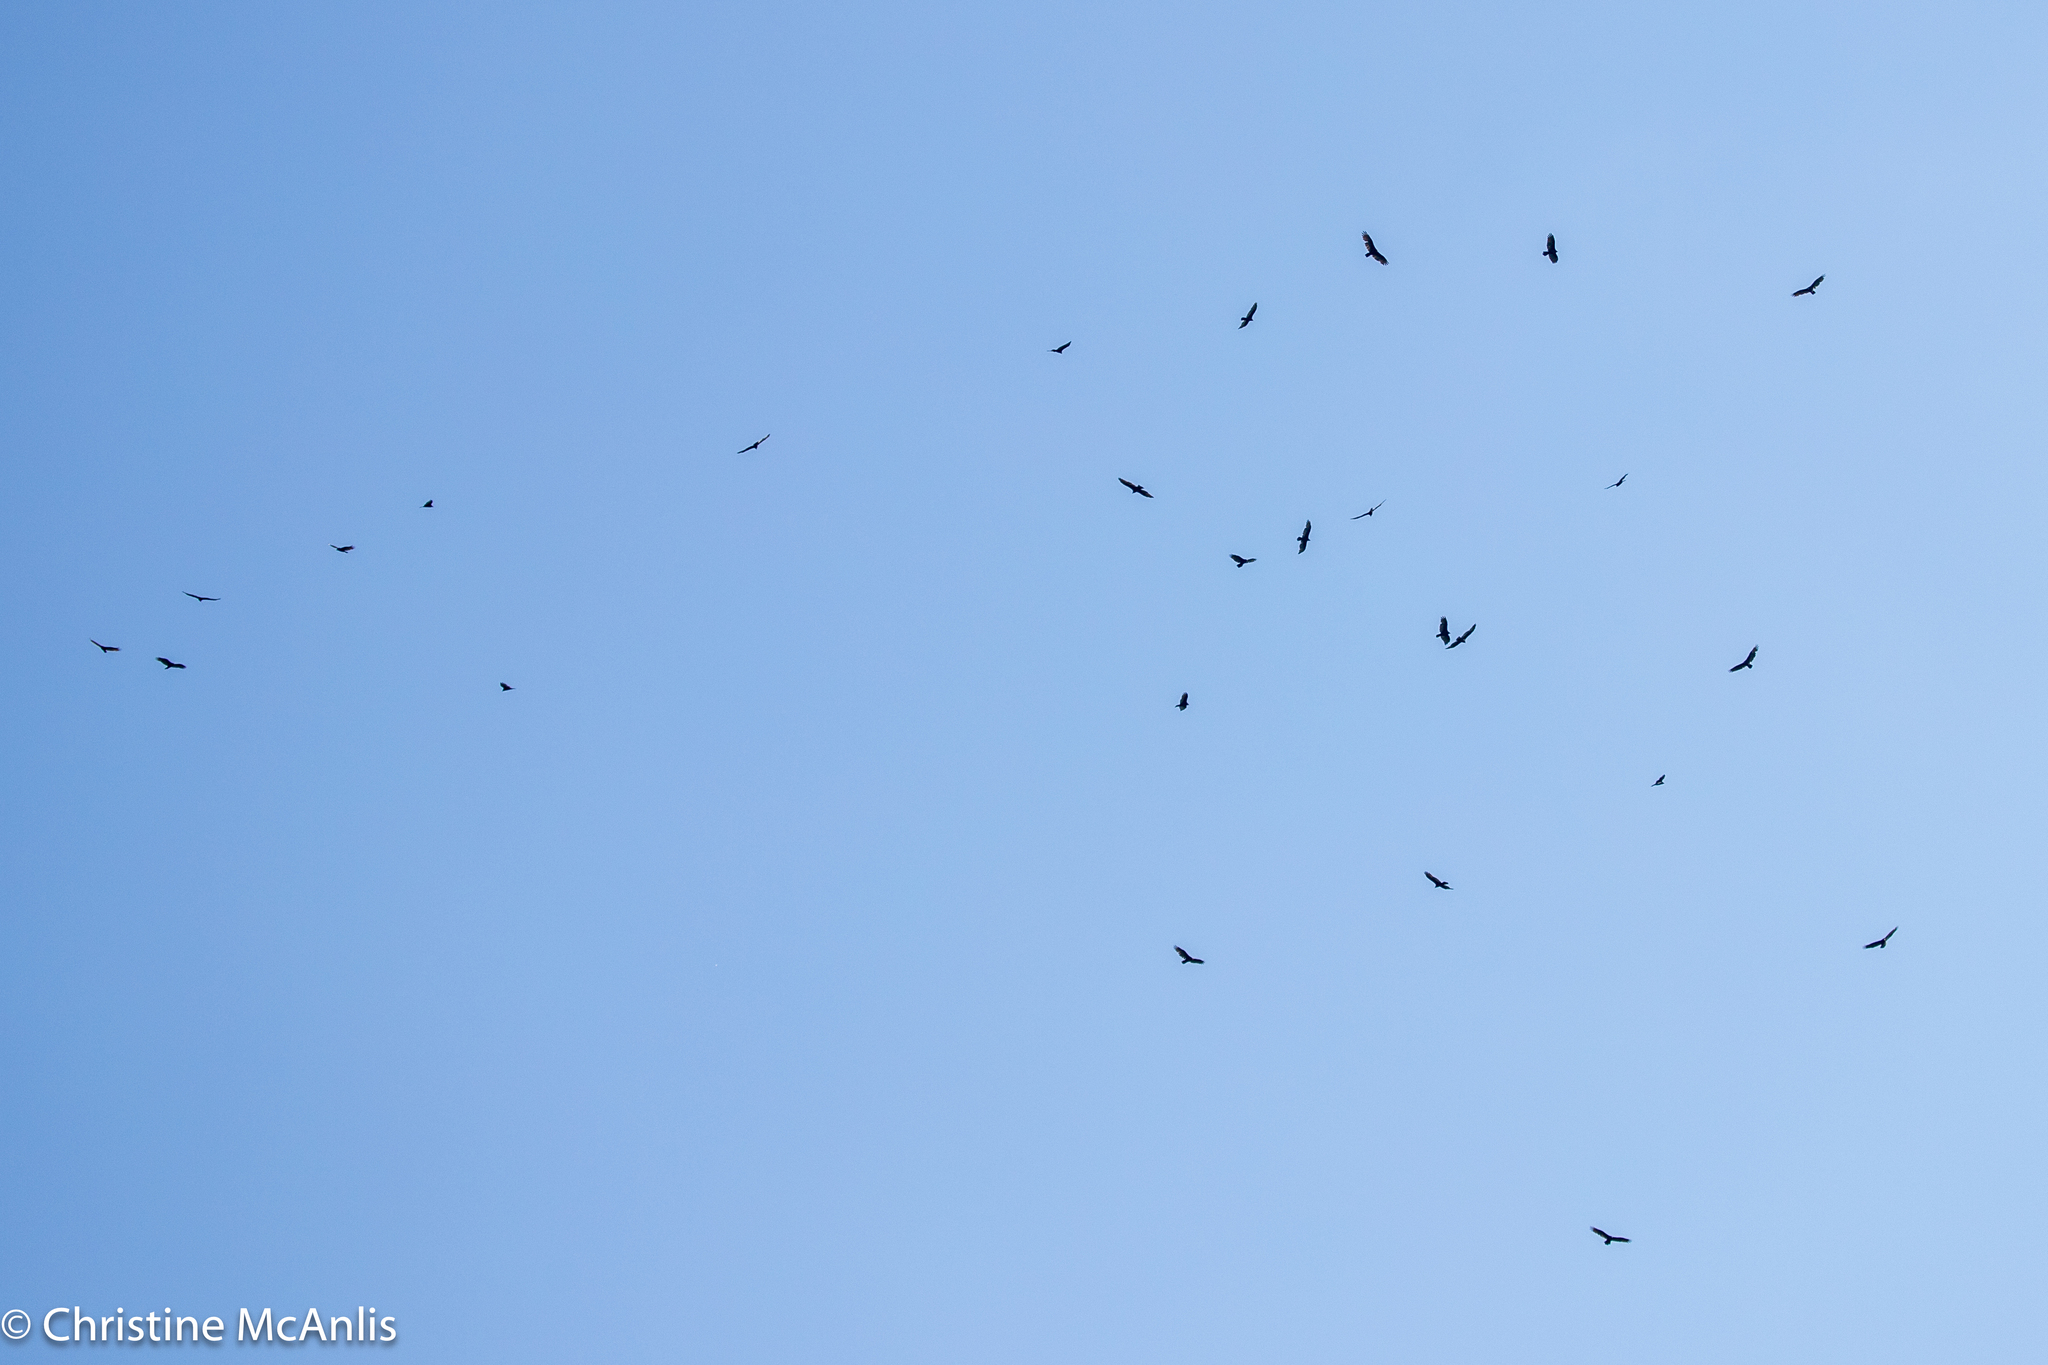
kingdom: Animalia
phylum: Chordata
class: Aves
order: Accipitriformes
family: Cathartidae
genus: Cathartes
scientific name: Cathartes aura
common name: Turkey vulture
